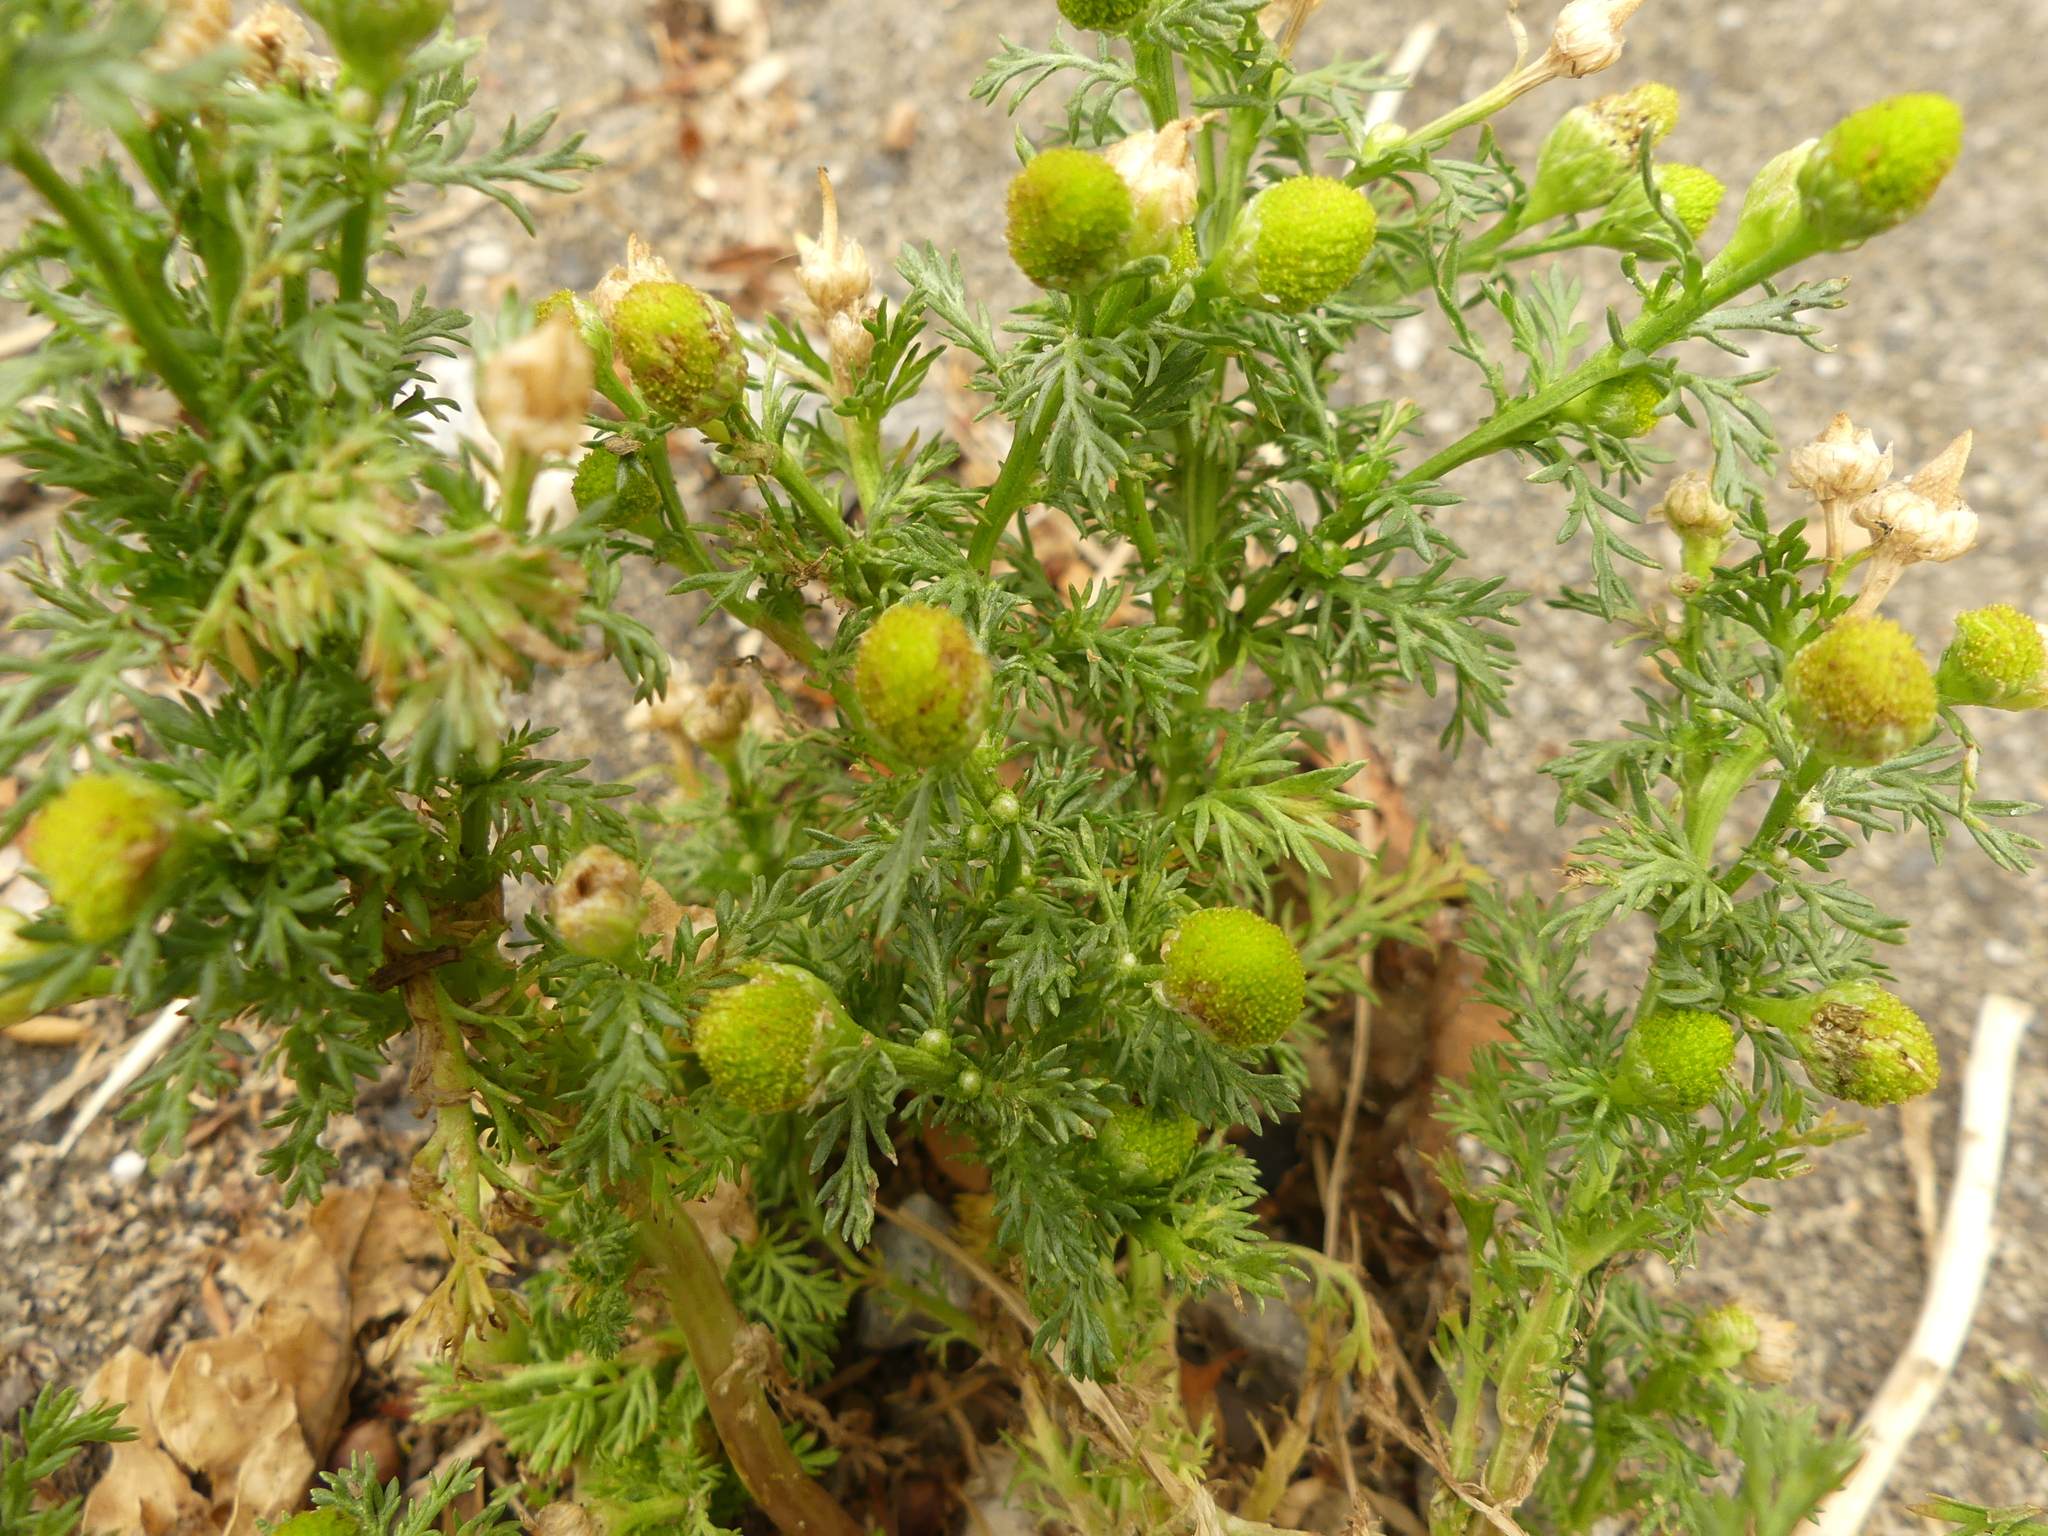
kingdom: Plantae
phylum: Tracheophyta
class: Magnoliopsida
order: Asterales
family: Asteraceae
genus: Matricaria
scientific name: Matricaria discoidea
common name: Disc mayweed
